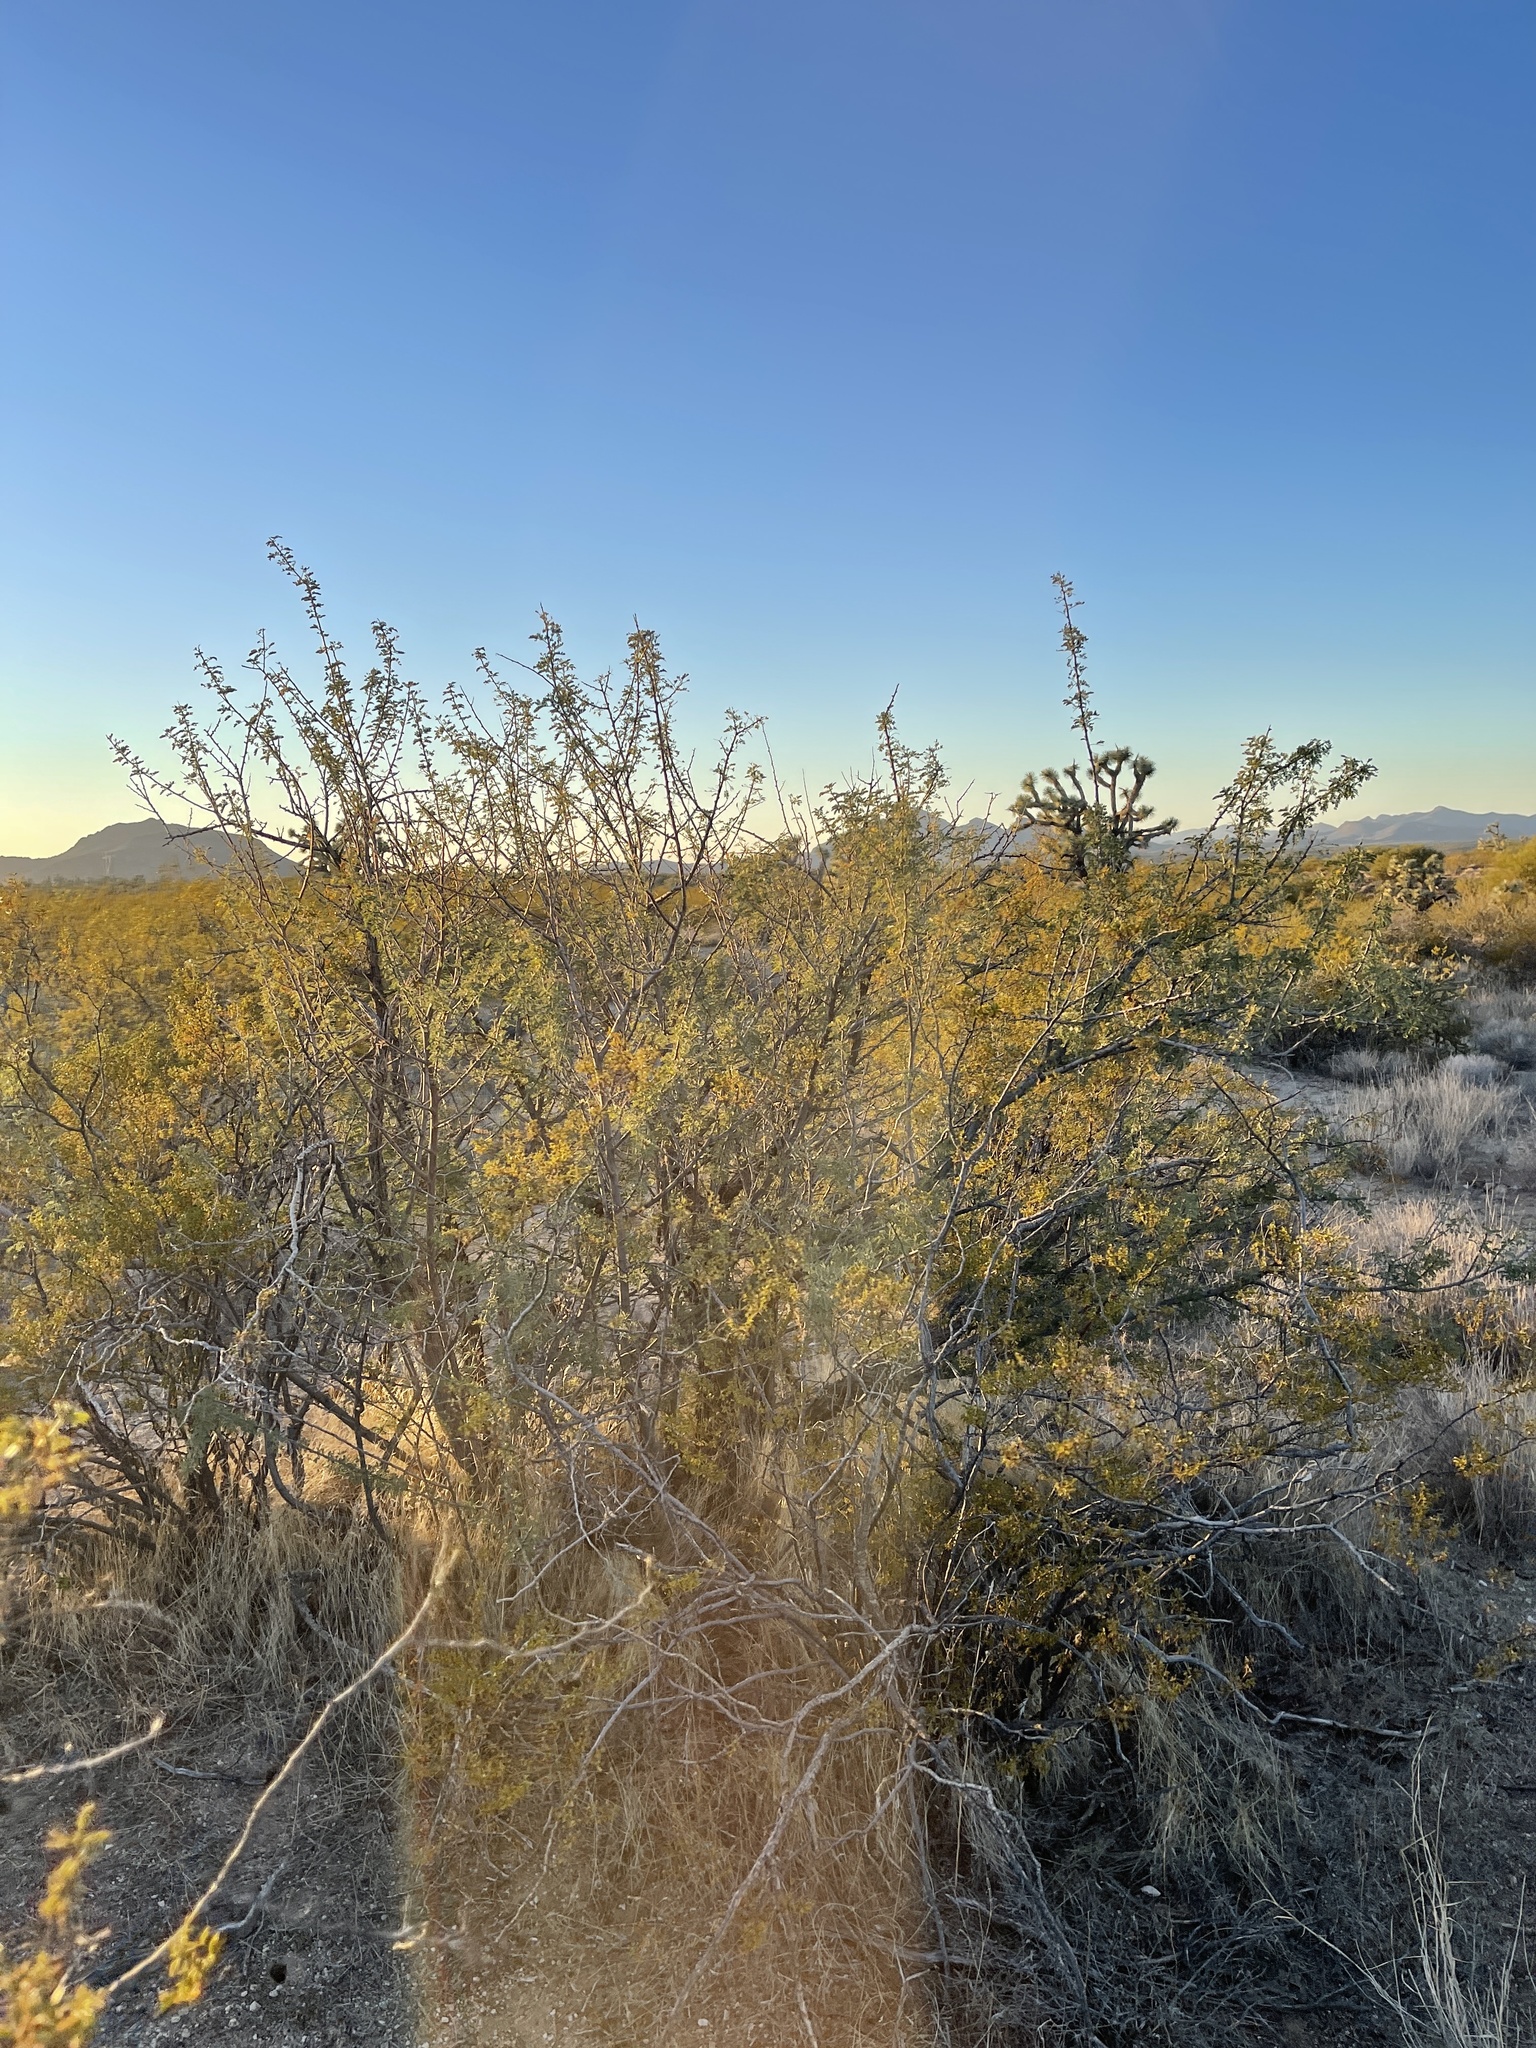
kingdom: Plantae
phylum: Tracheophyta
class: Magnoliopsida
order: Fabales
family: Fabaceae
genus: Senegalia
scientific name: Senegalia greggii
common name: Texas-mimosa
